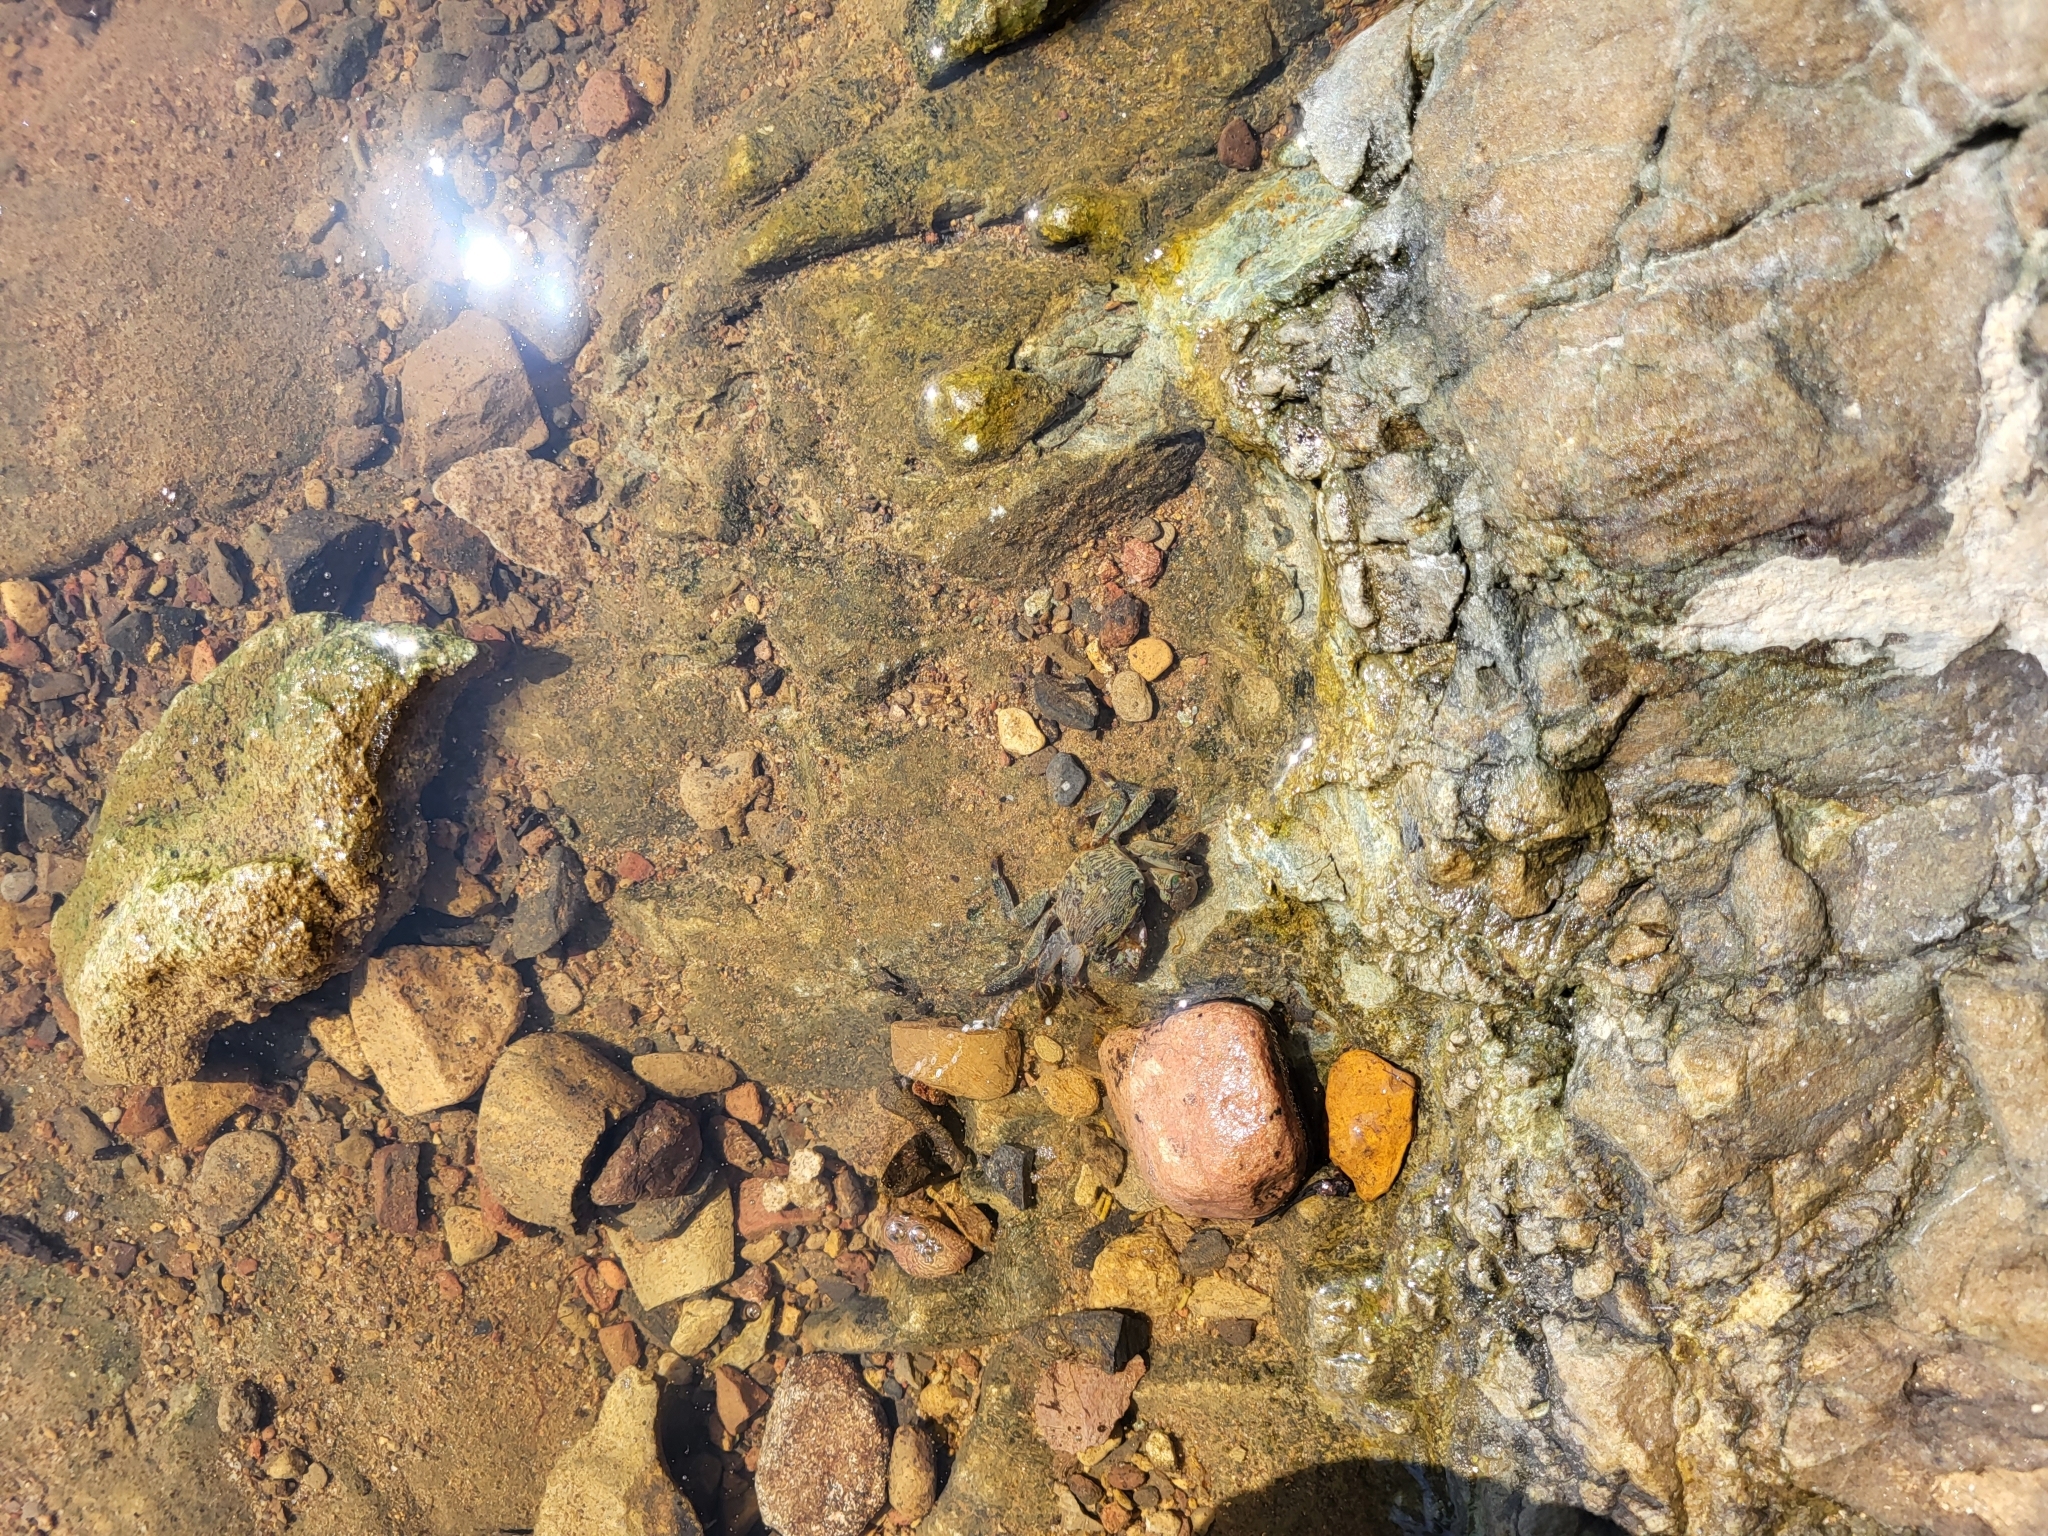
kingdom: Animalia
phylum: Arthropoda
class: Malacostraca
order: Decapoda
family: Grapsidae
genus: Pachygrapsus
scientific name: Pachygrapsus crassipes
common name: Striped shore crab
